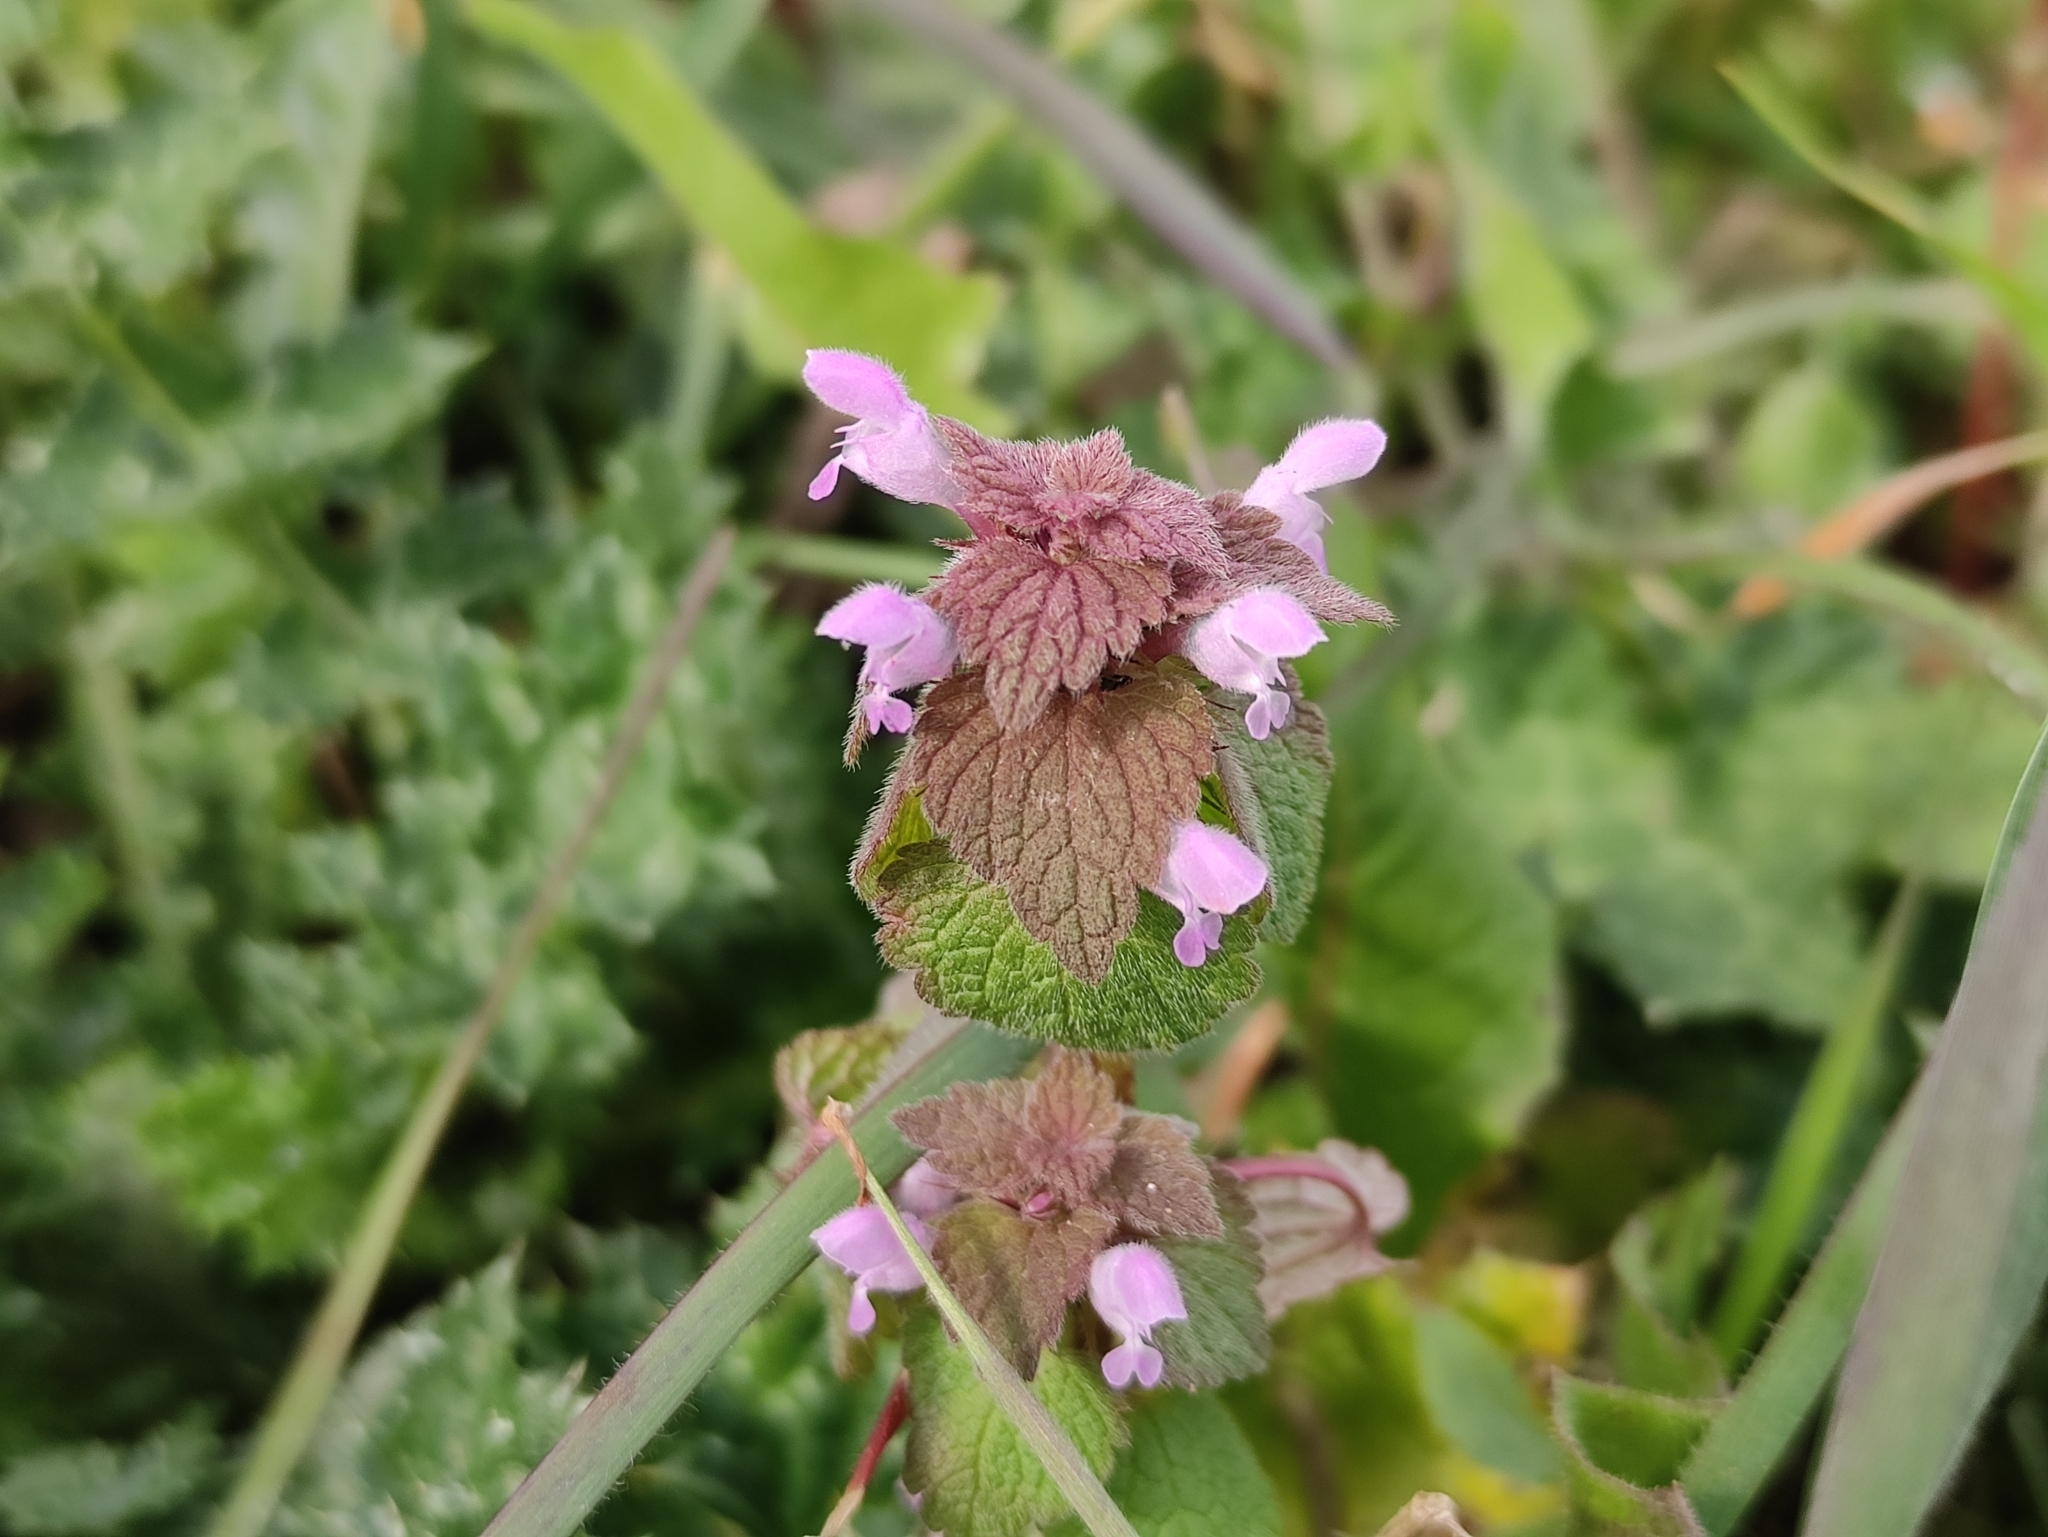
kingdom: Plantae
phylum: Tracheophyta
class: Magnoliopsida
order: Lamiales
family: Lamiaceae
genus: Lamium
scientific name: Lamium purpureum
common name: Red dead-nettle
